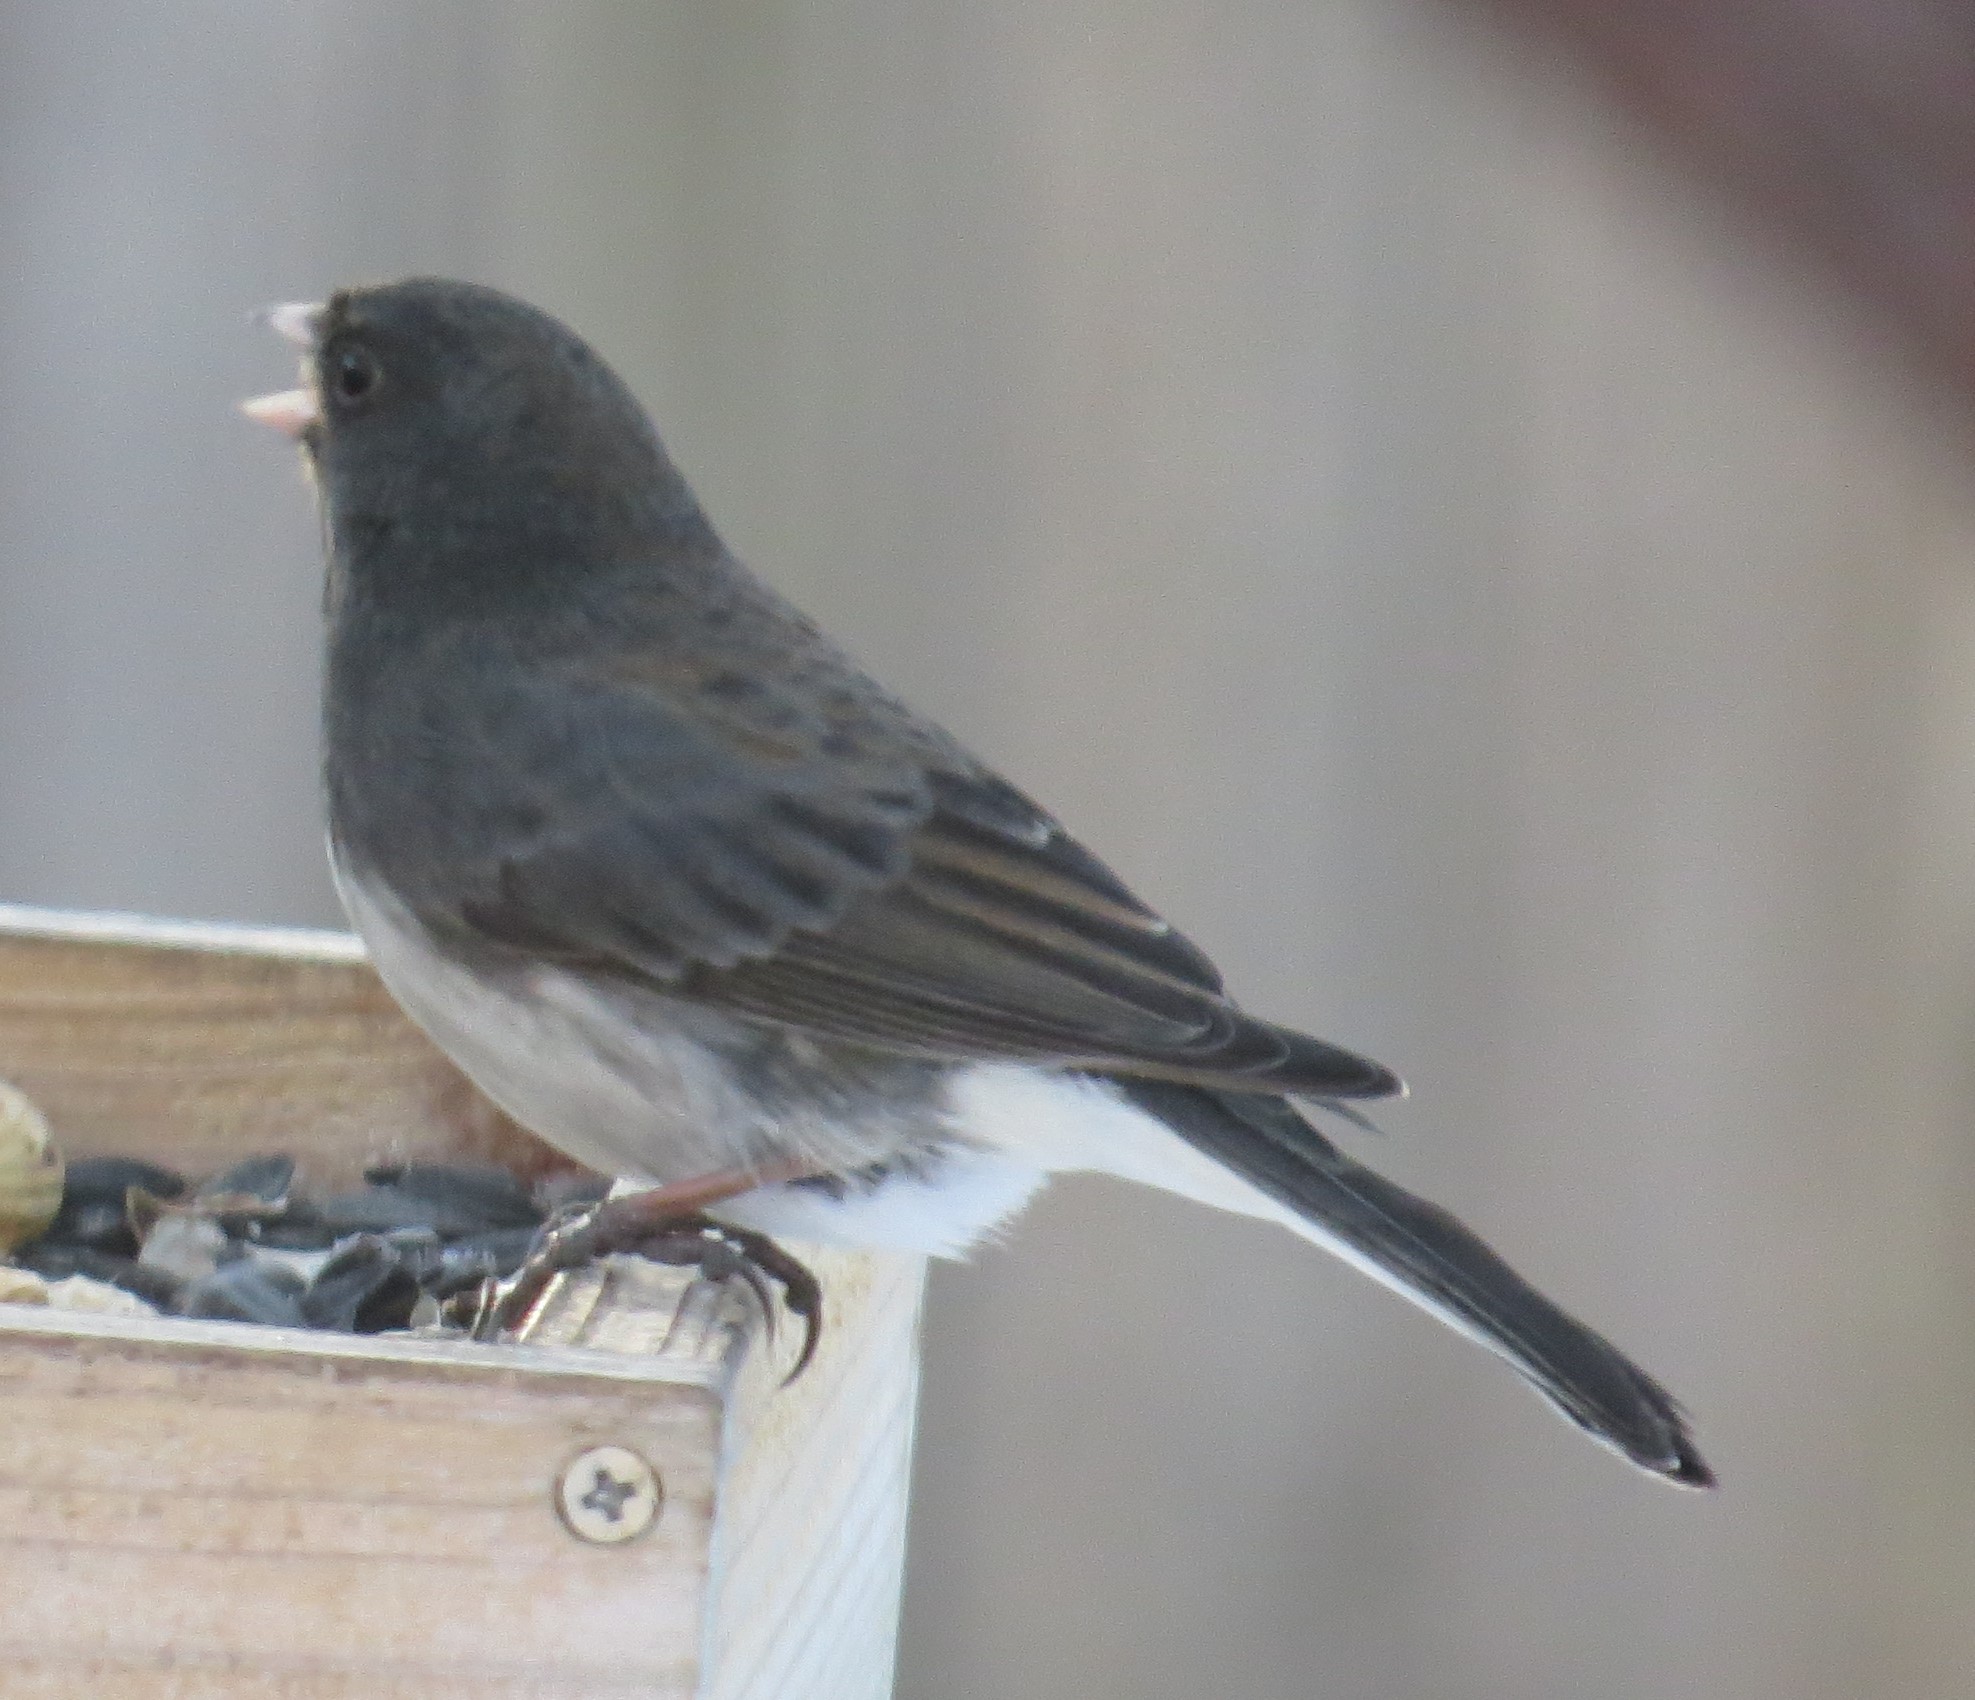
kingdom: Animalia
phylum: Chordata
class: Aves
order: Passeriformes
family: Passerellidae
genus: Junco
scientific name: Junco hyemalis
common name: Dark-eyed junco
